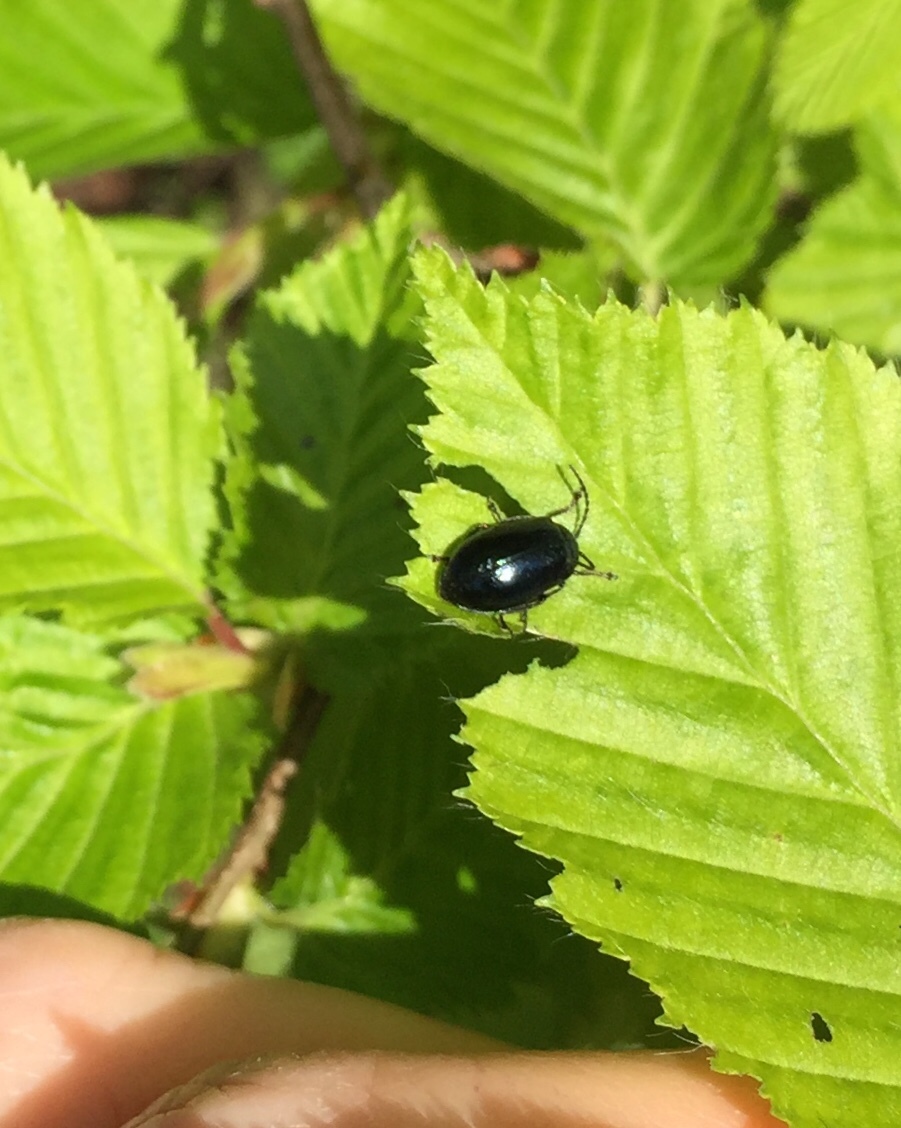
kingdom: Animalia
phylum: Arthropoda
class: Insecta
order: Coleoptera
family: Chrysomelidae
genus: Agelastica
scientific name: Agelastica alni
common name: Alder leaf beetle
